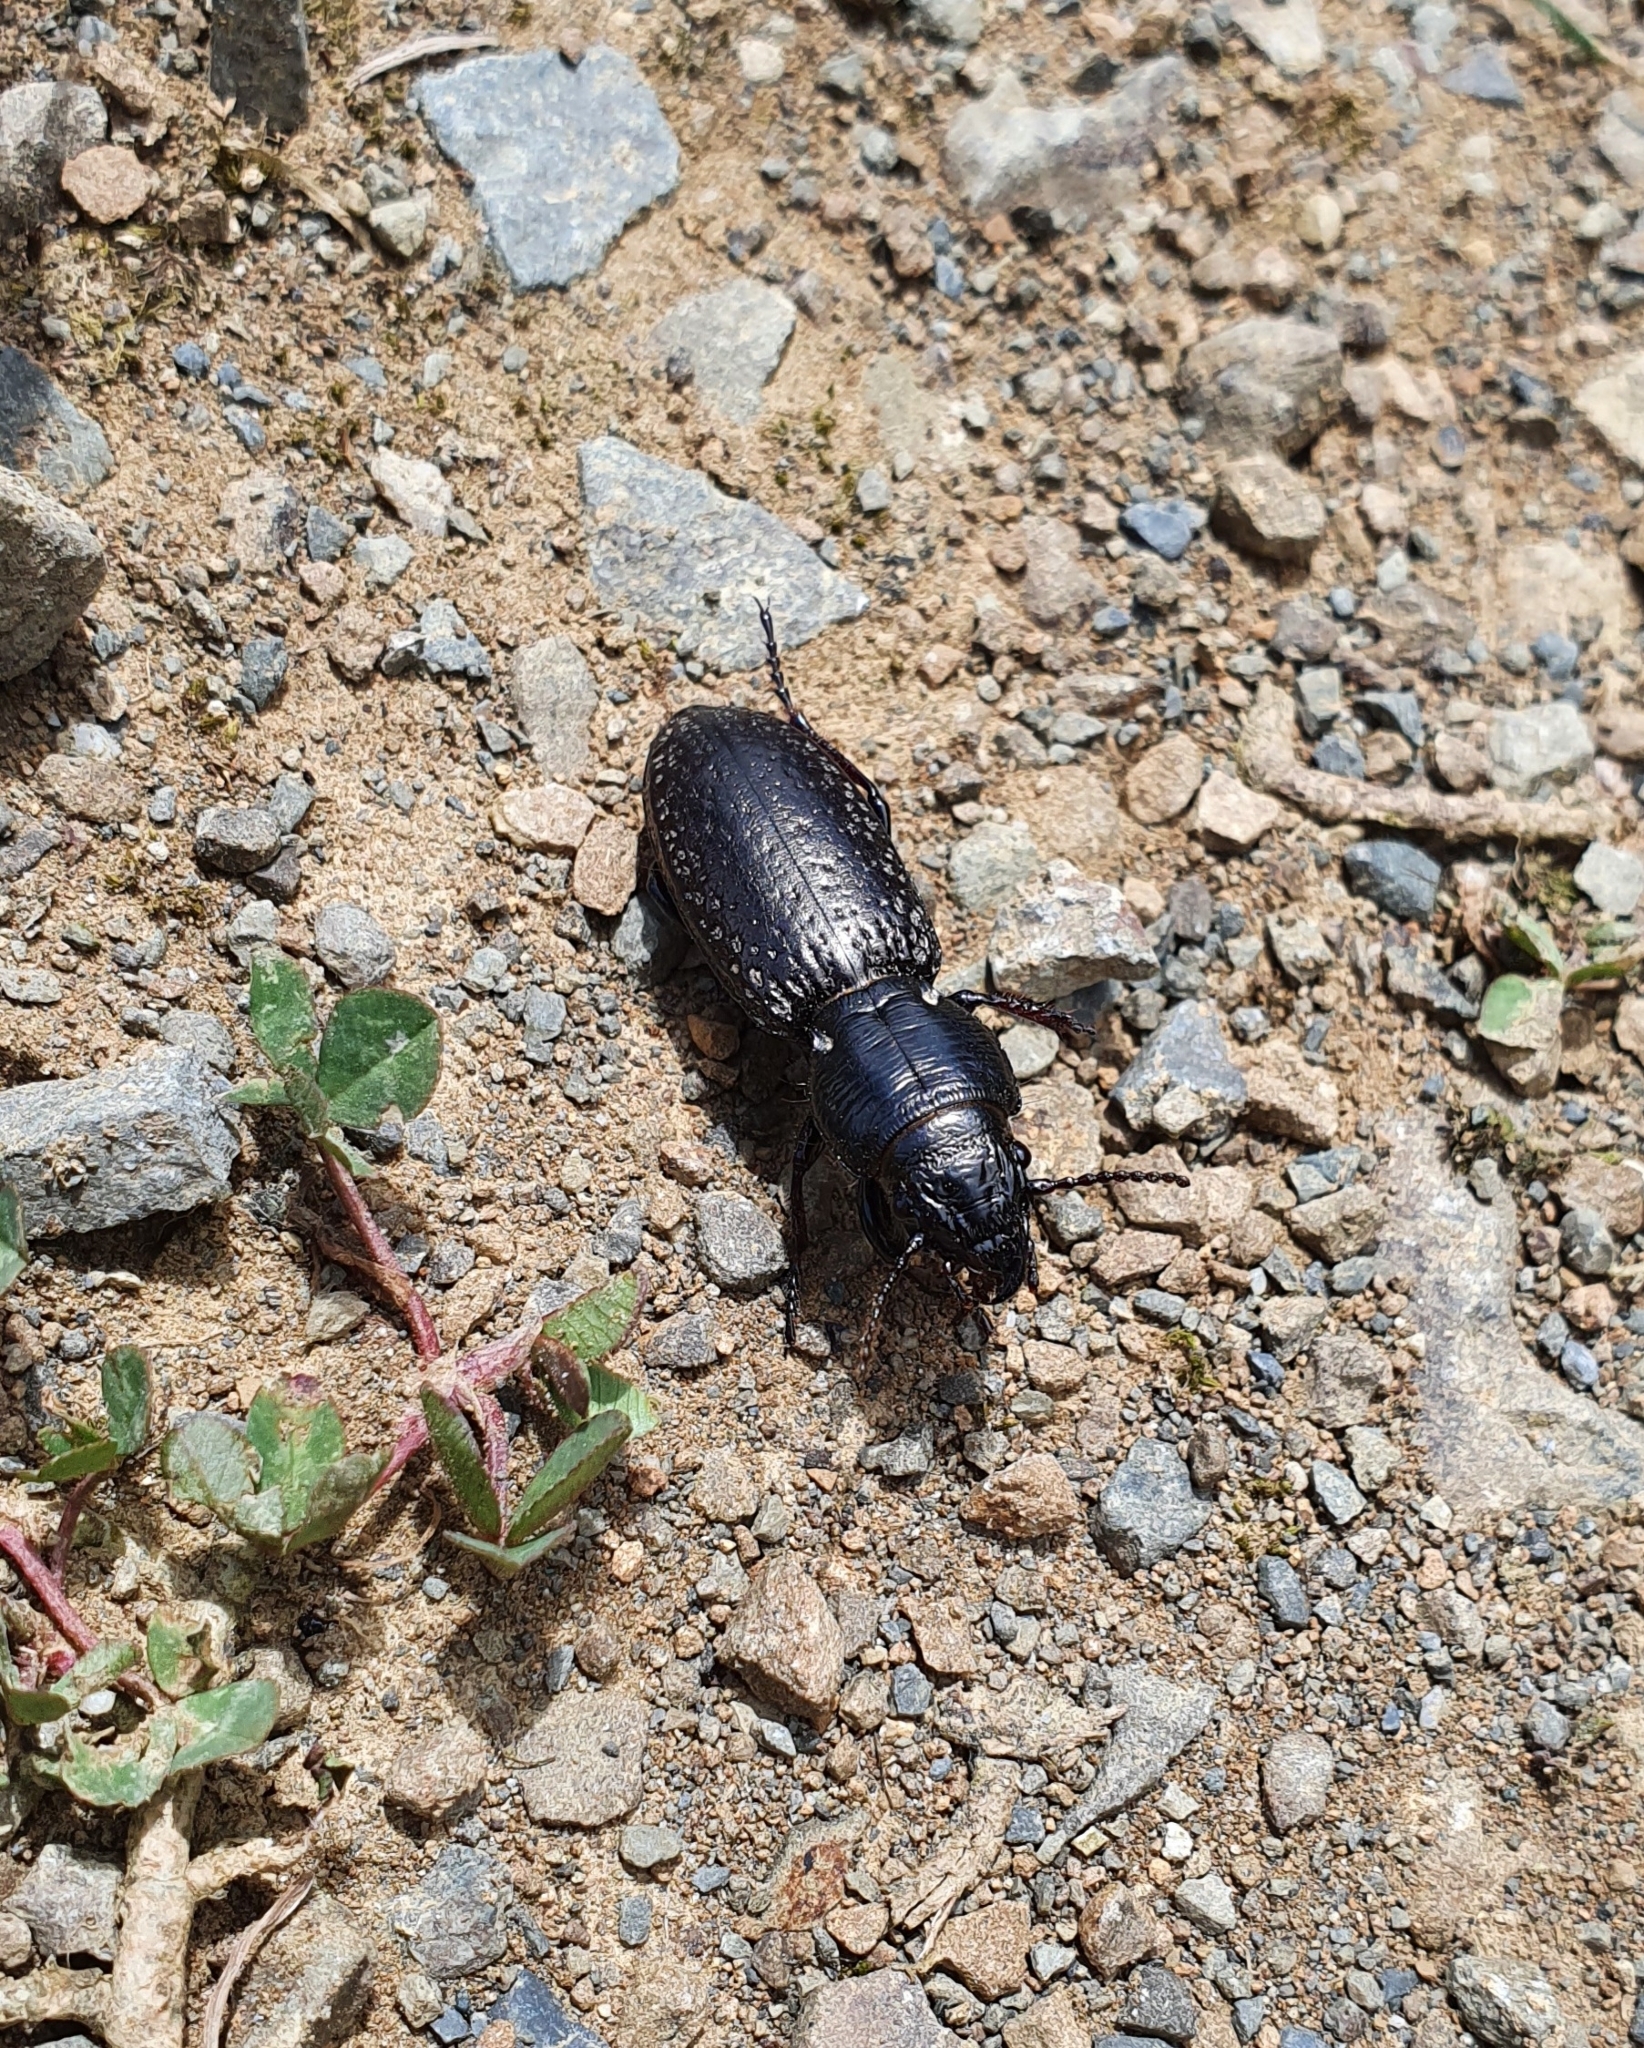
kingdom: Animalia
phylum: Arthropoda
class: Insecta
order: Coleoptera
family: Carabidae
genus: Mecodema
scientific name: Mecodema crenicolle
